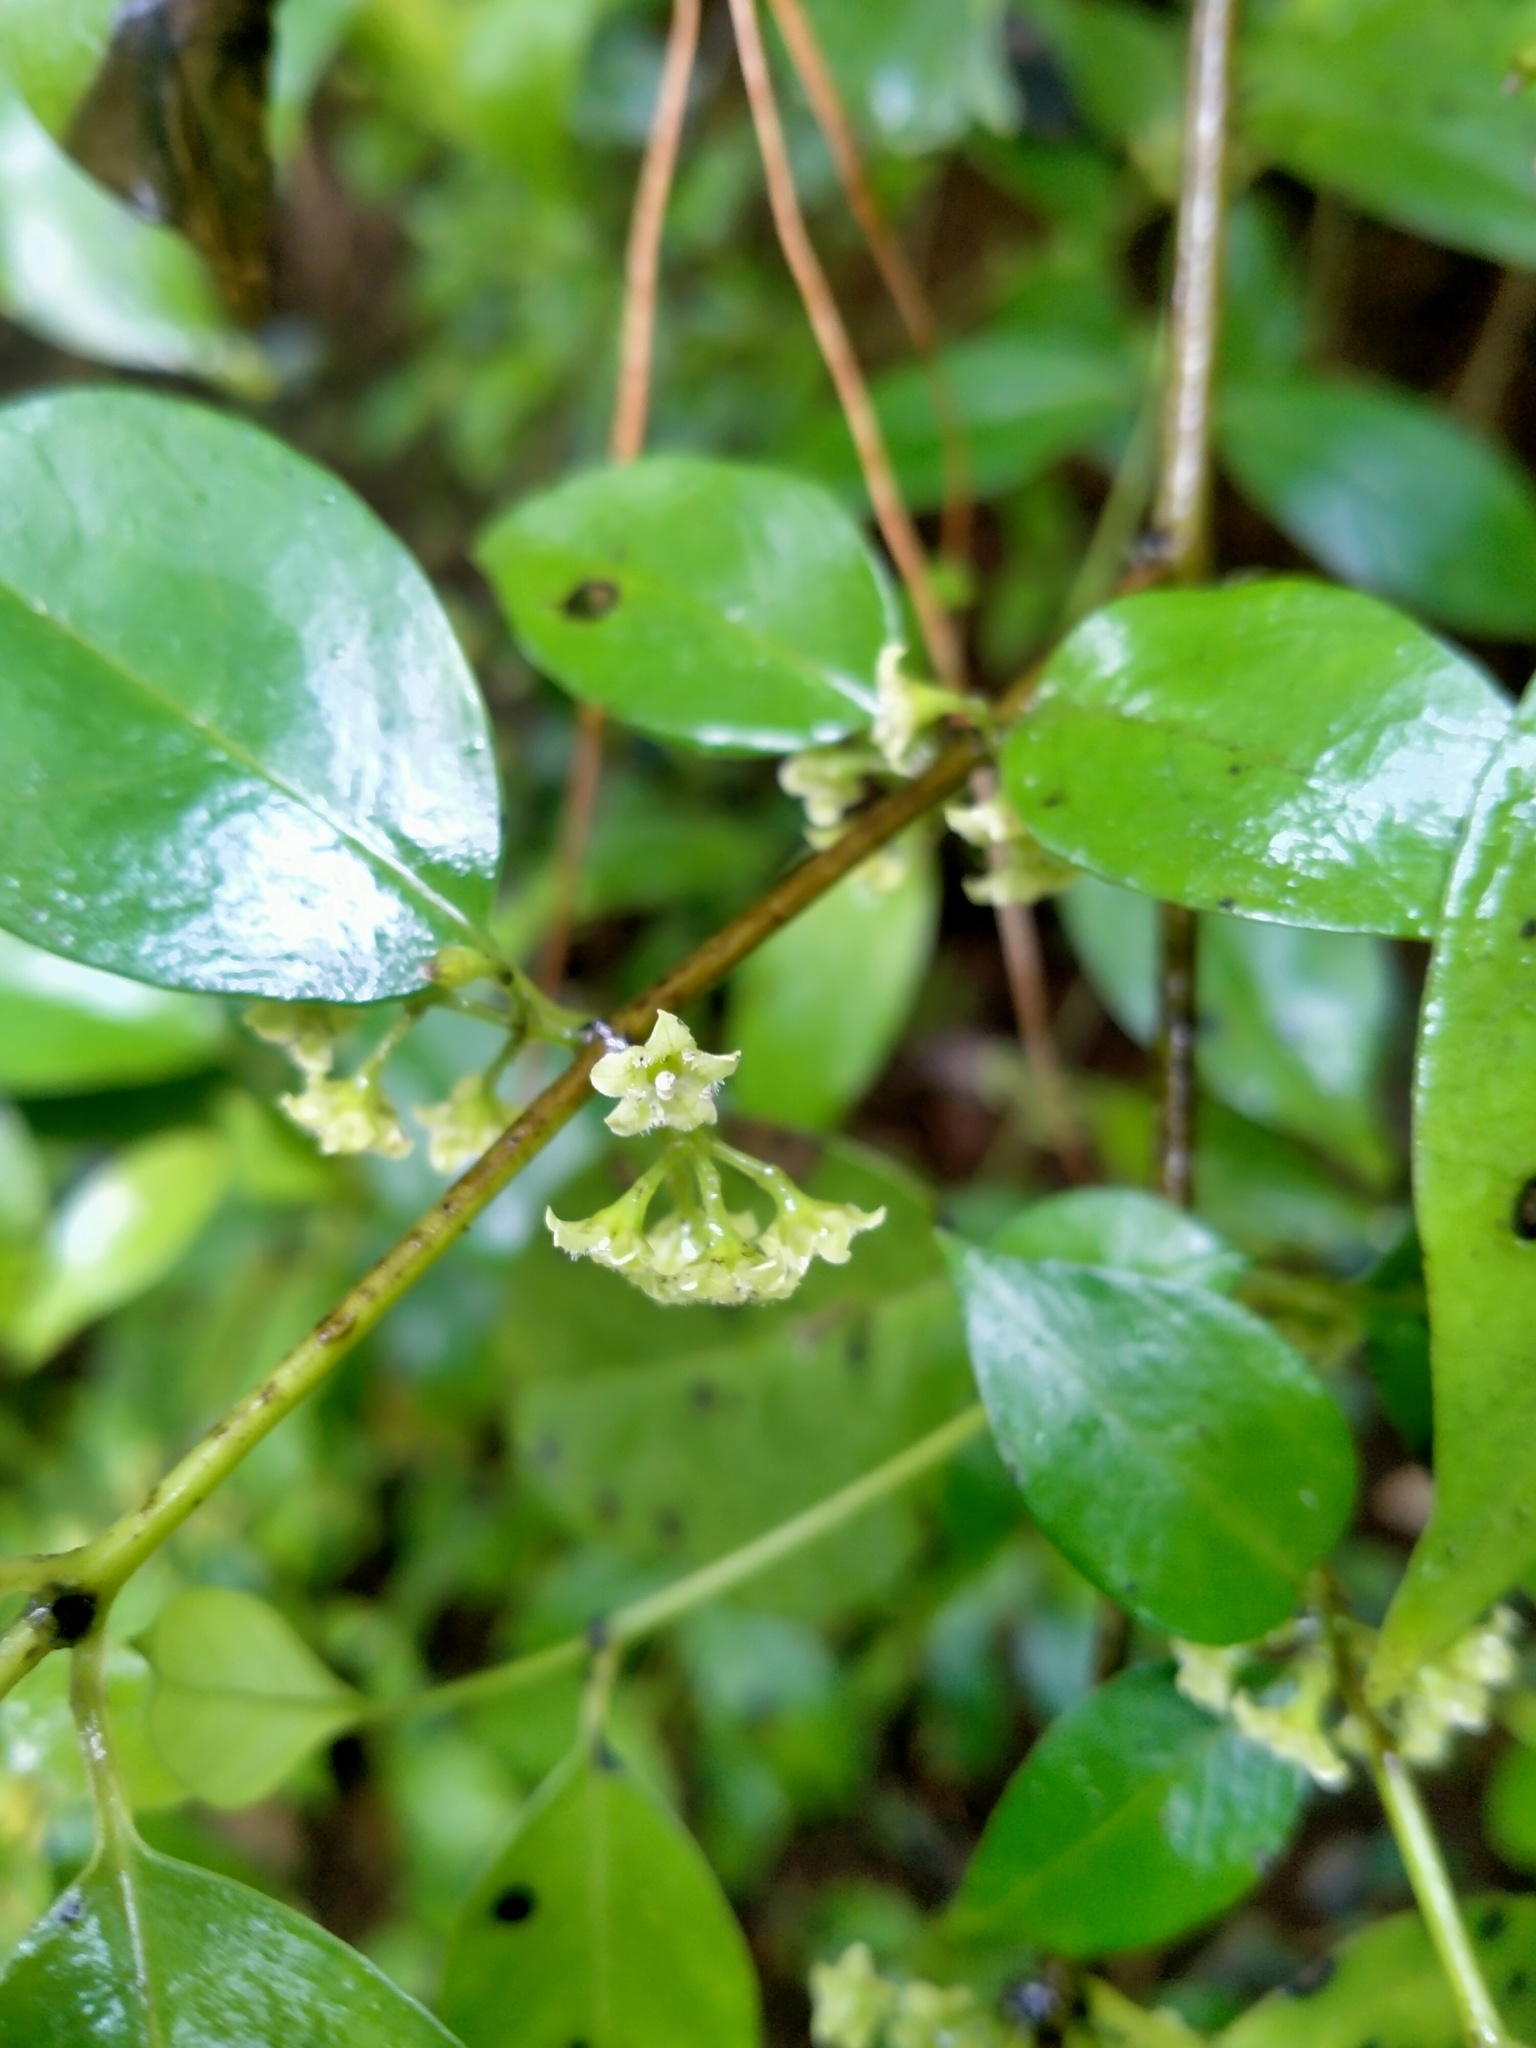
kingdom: Plantae
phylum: Tracheophyta
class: Magnoliopsida
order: Gentianales
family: Loganiaceae
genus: Geniostoma
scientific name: Geniostoma ligustrifolium
